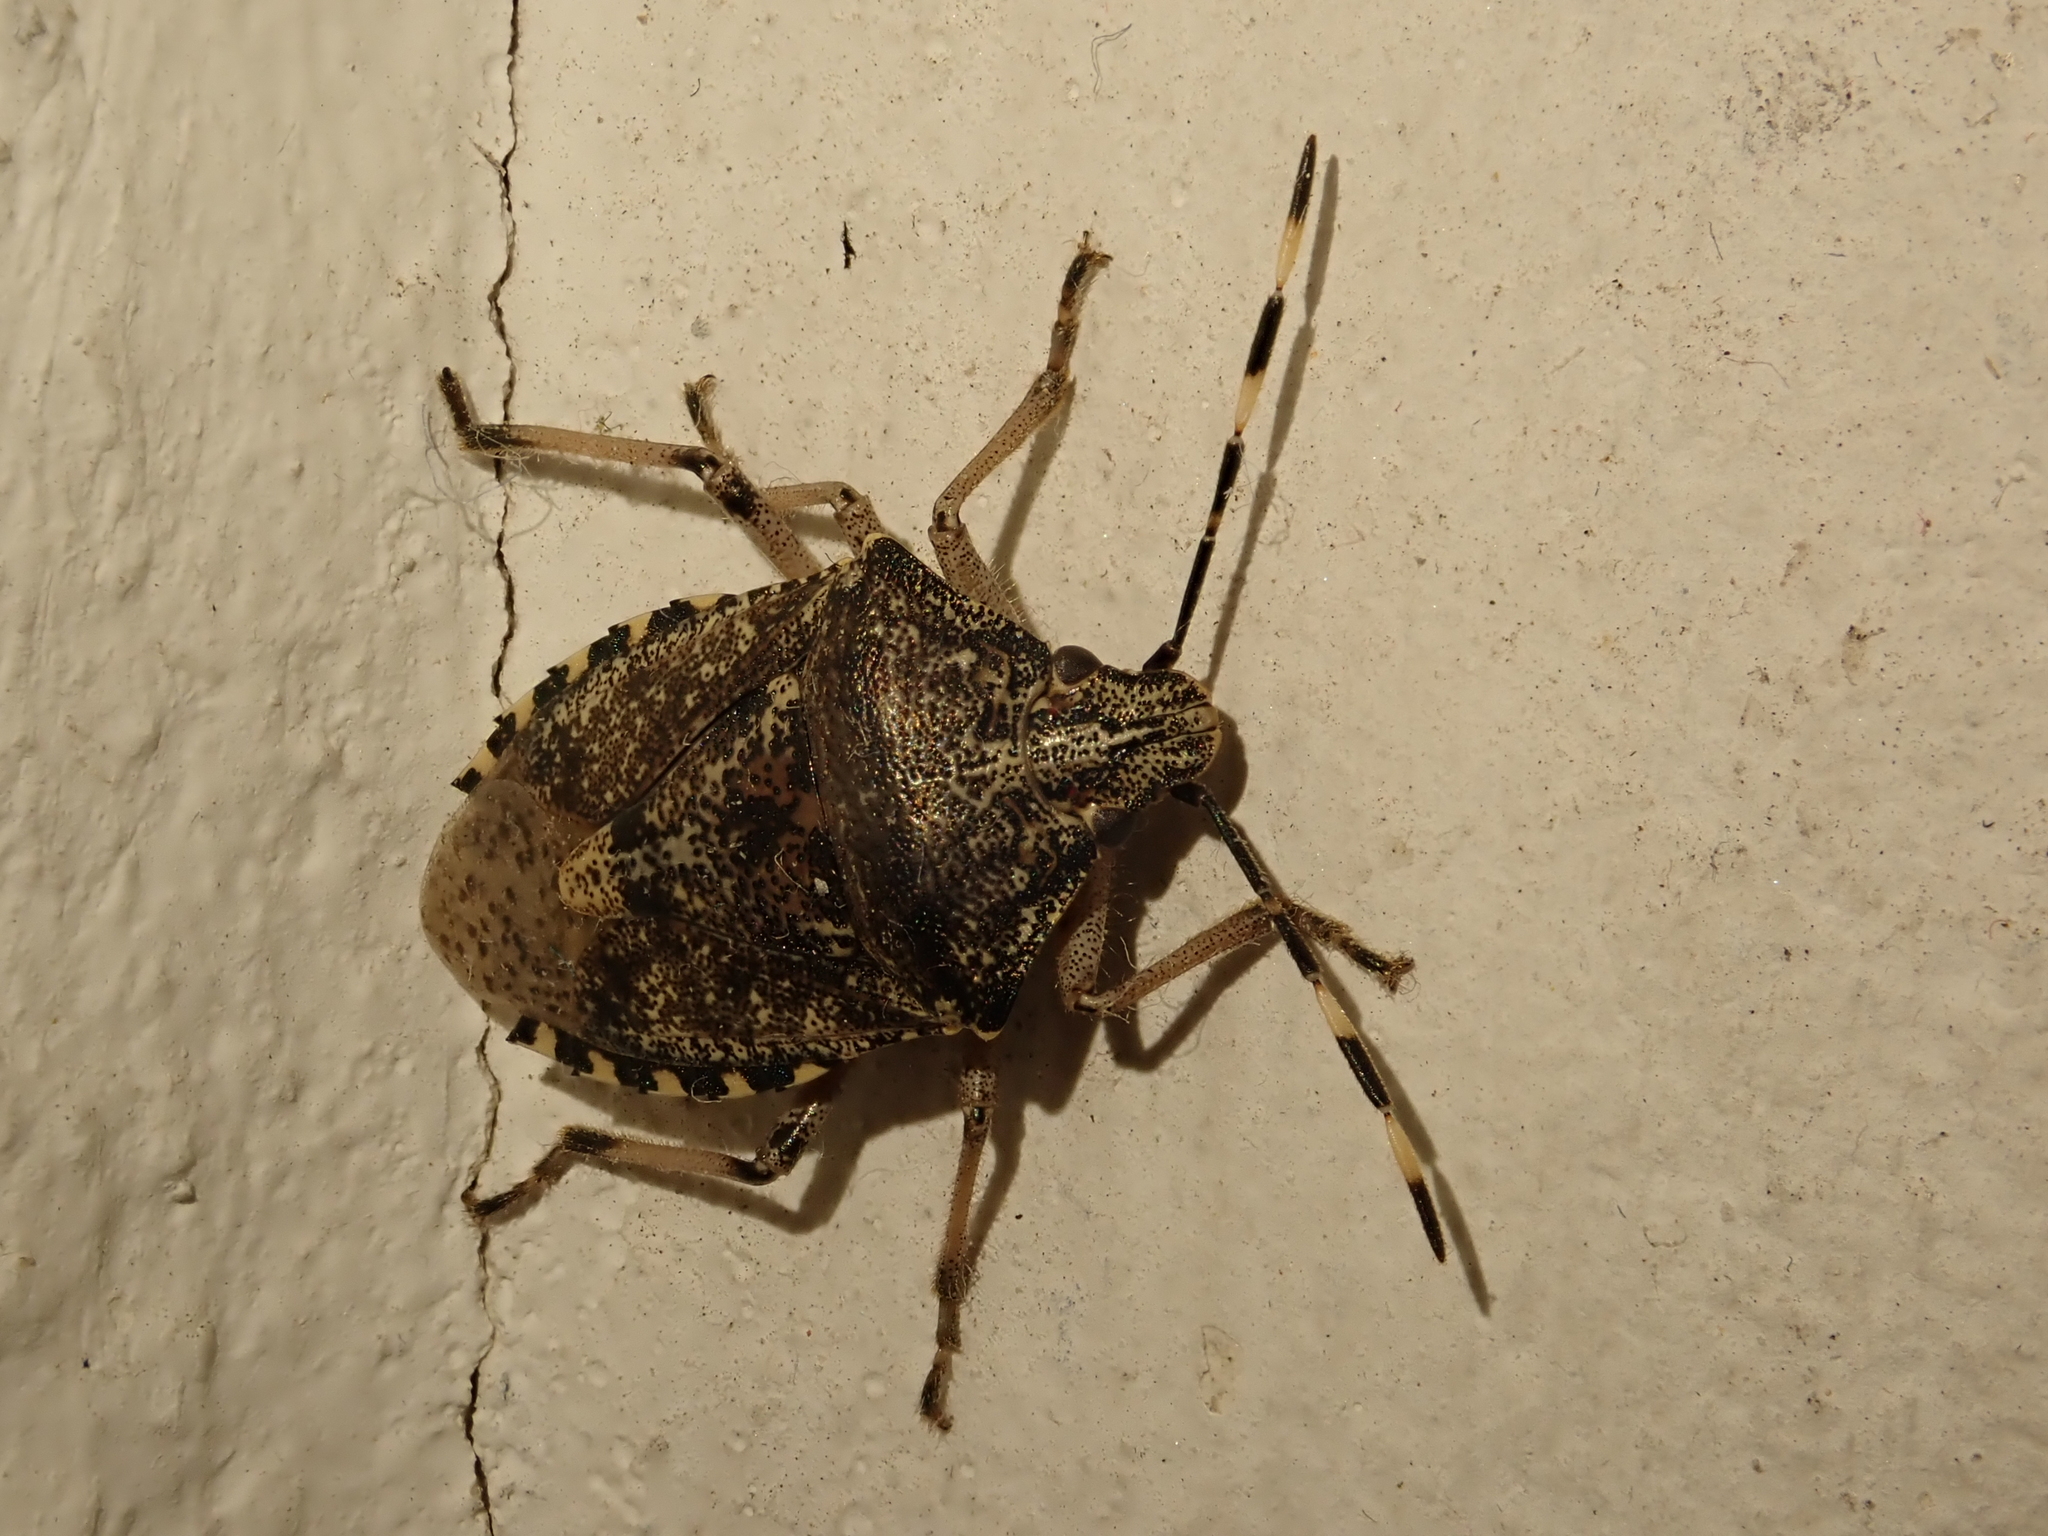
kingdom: Animalia
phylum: Arthropoda
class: Insecta
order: Hemiptera
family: Pentatomidae
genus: Rhaphigaster
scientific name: Rhaphigaster nebulosa
